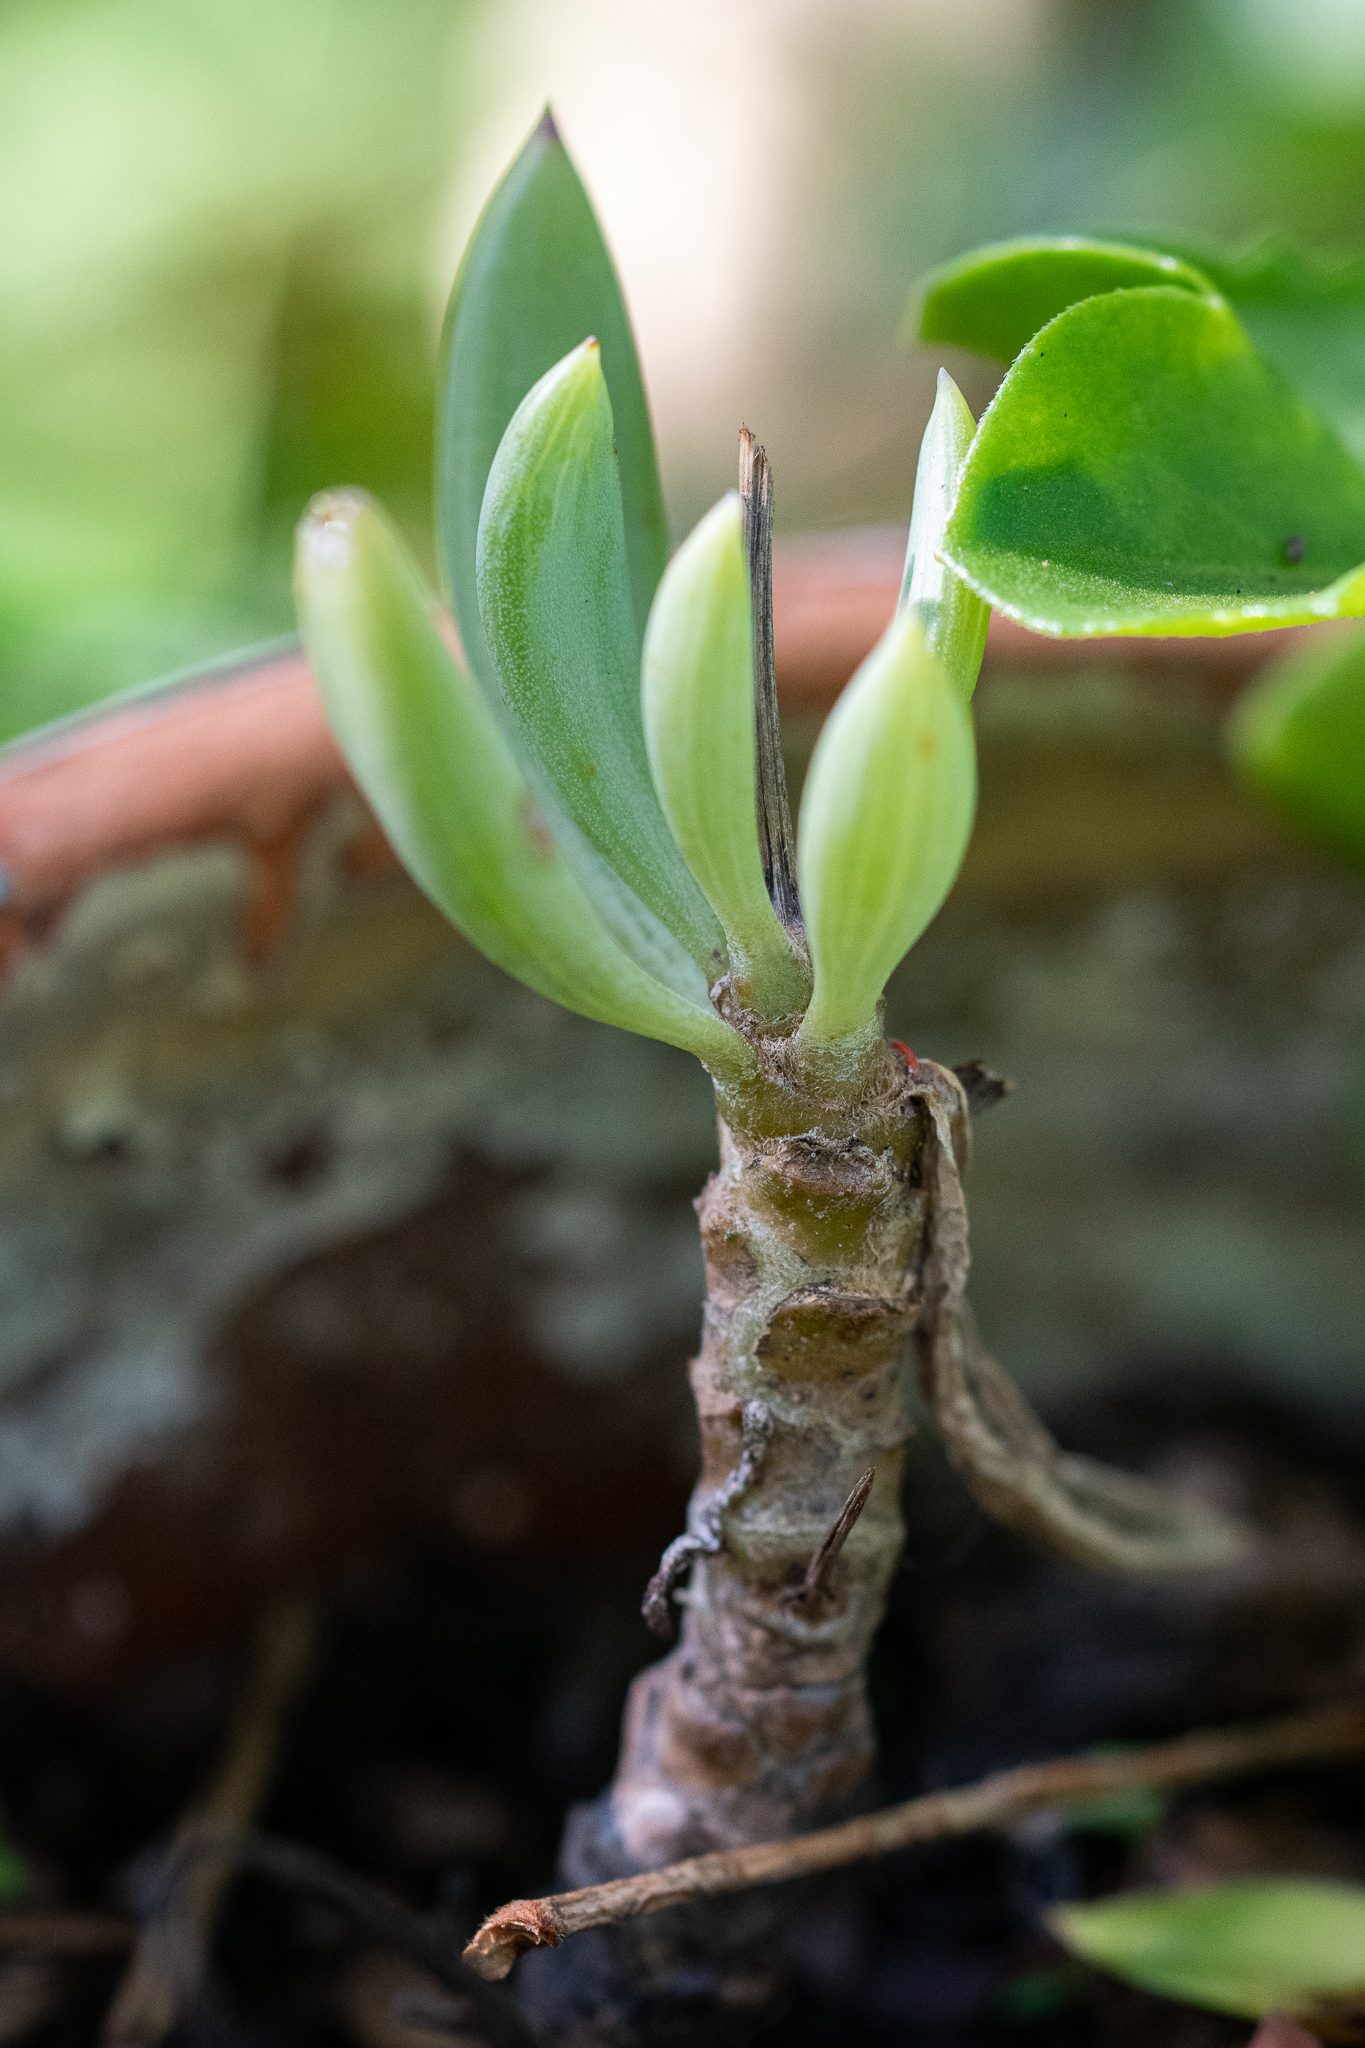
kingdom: Plantae
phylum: Tracheophyta
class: Magnoliopsida
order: Asterales
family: Asteraceae
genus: Curio
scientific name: Curio crassulifolius
